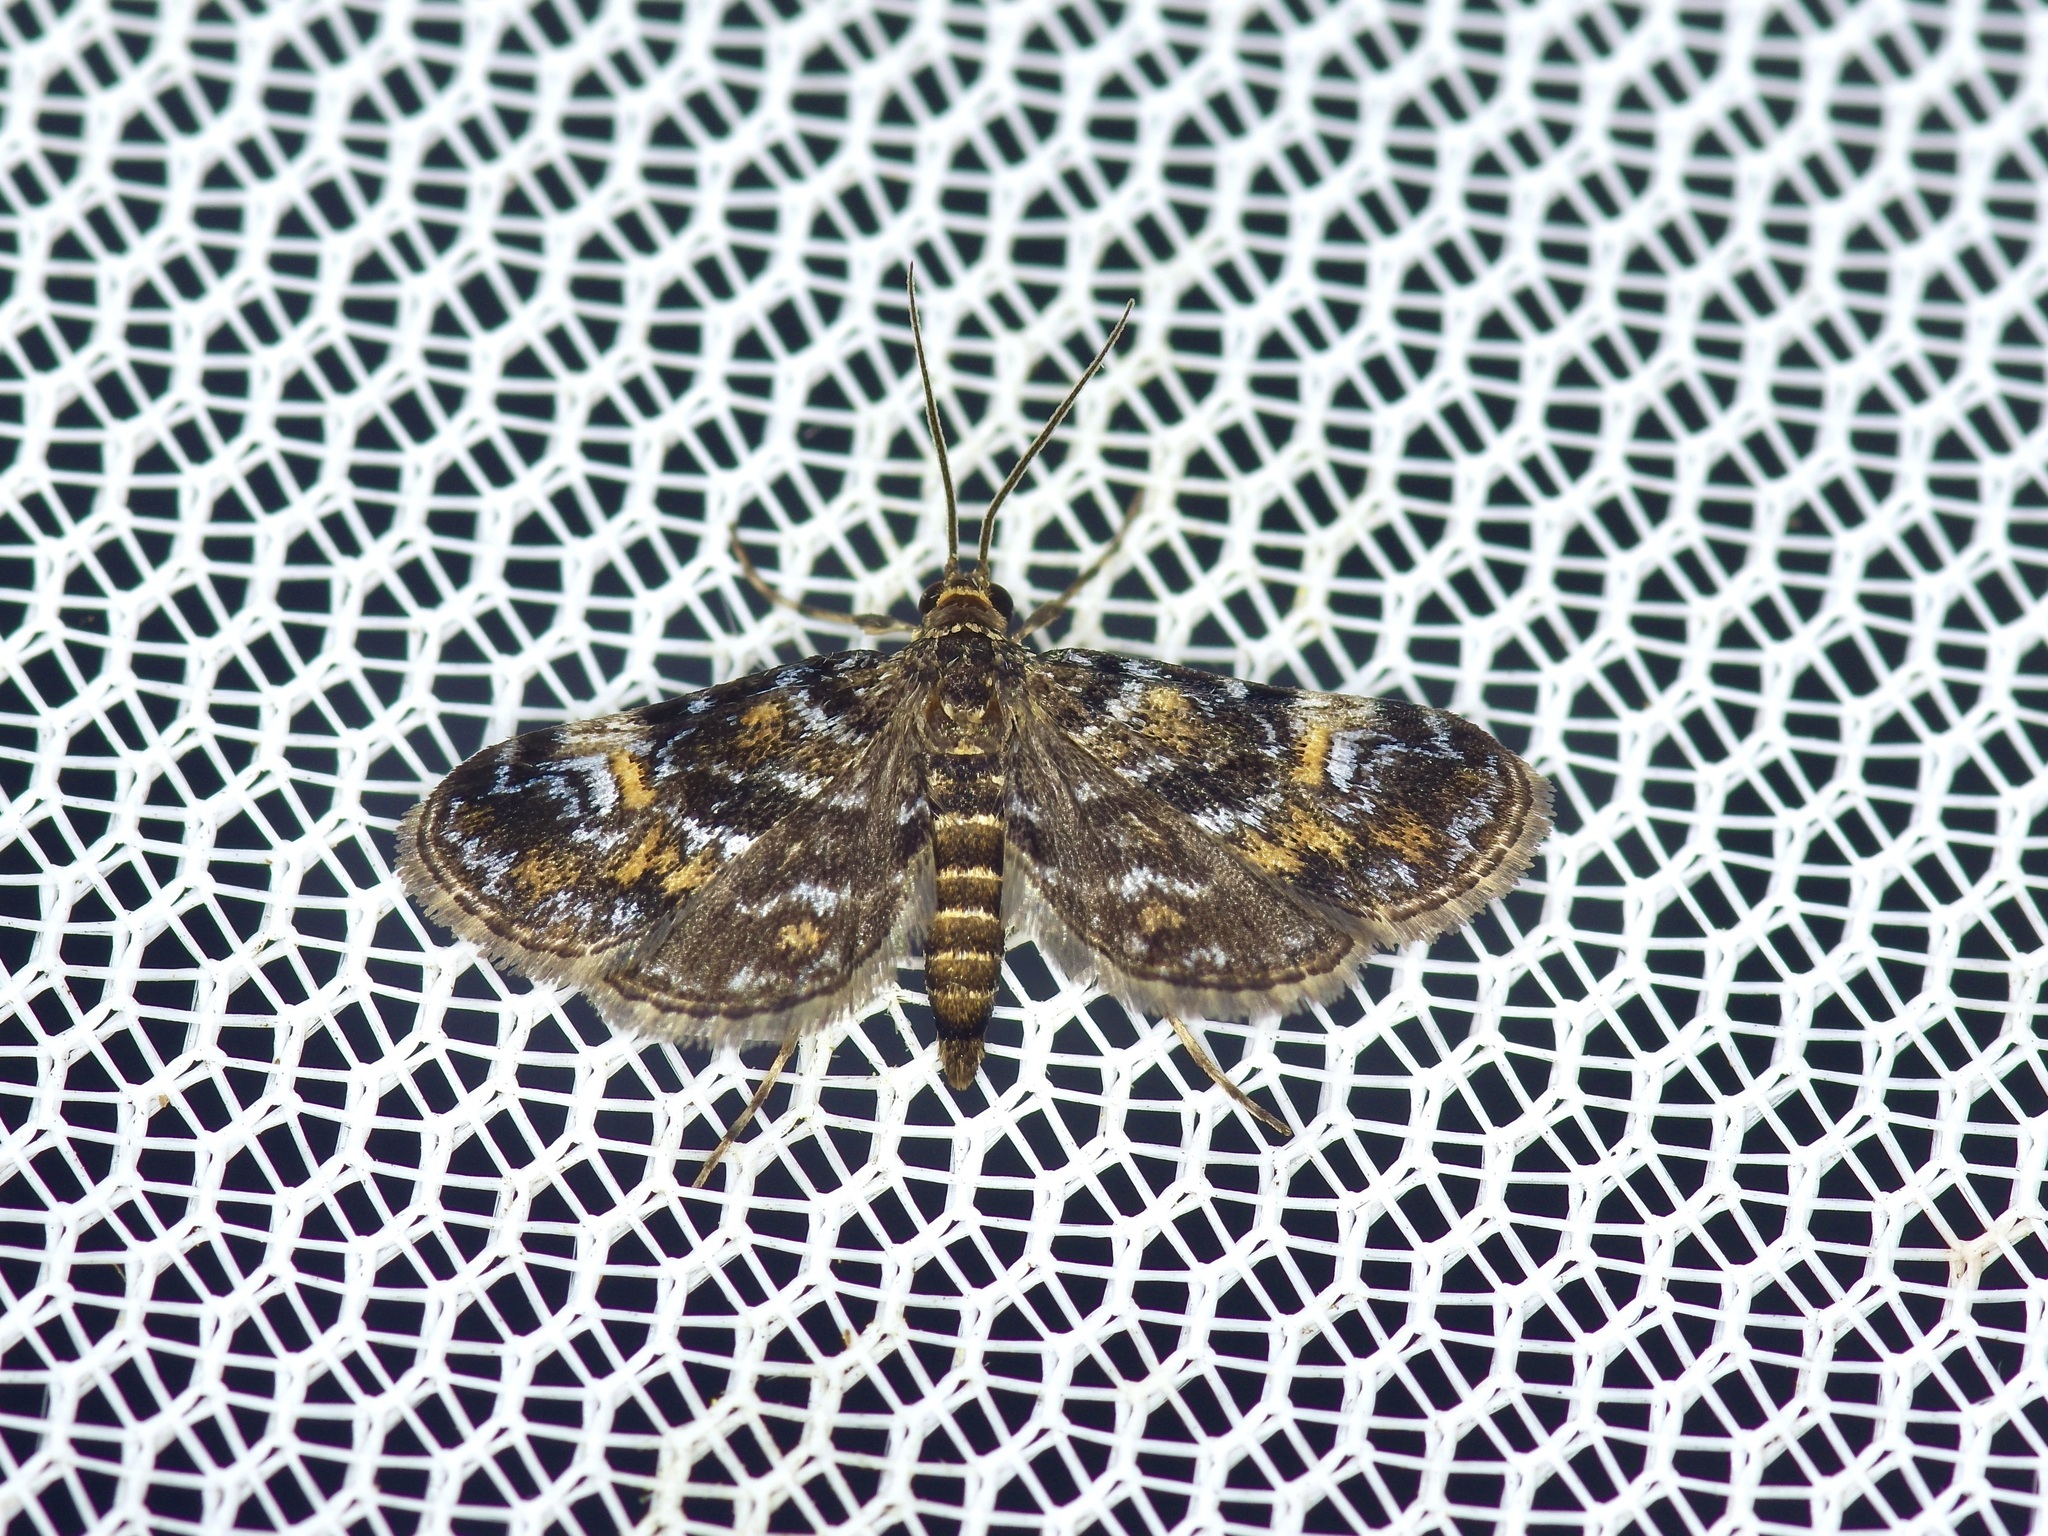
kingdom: Animalia
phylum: Arthropoda
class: Insecta
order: Lepidoptera
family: Crambidae
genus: Elophila
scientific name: Elophila obliteralis
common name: Waterlily leafcutter moth
